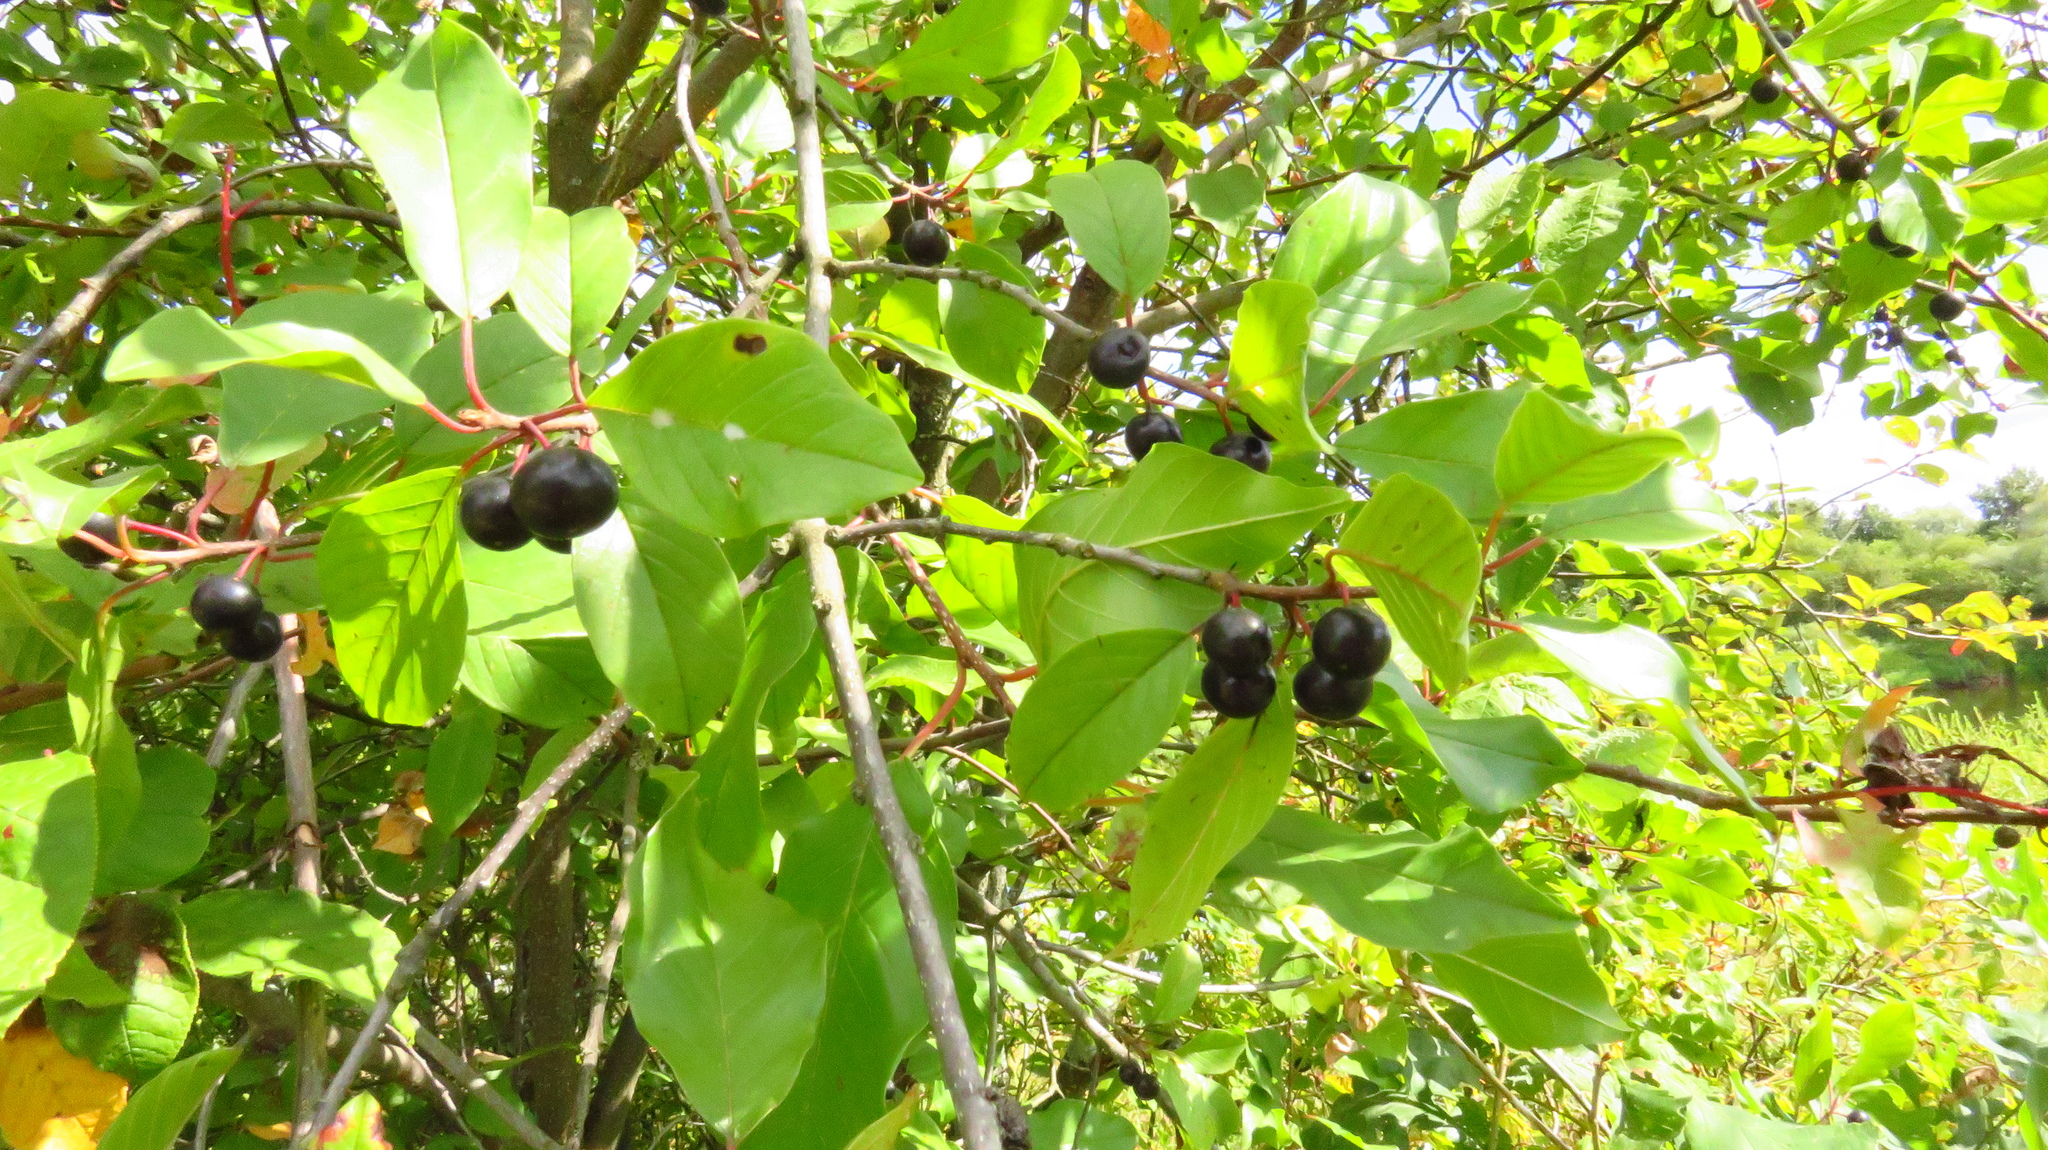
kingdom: Plantae
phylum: Tracheophyta
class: Magnoliopsida
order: Rosales
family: Rhamnaceae
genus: Frangula
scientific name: Frangula alnus
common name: Alder buckthorn
